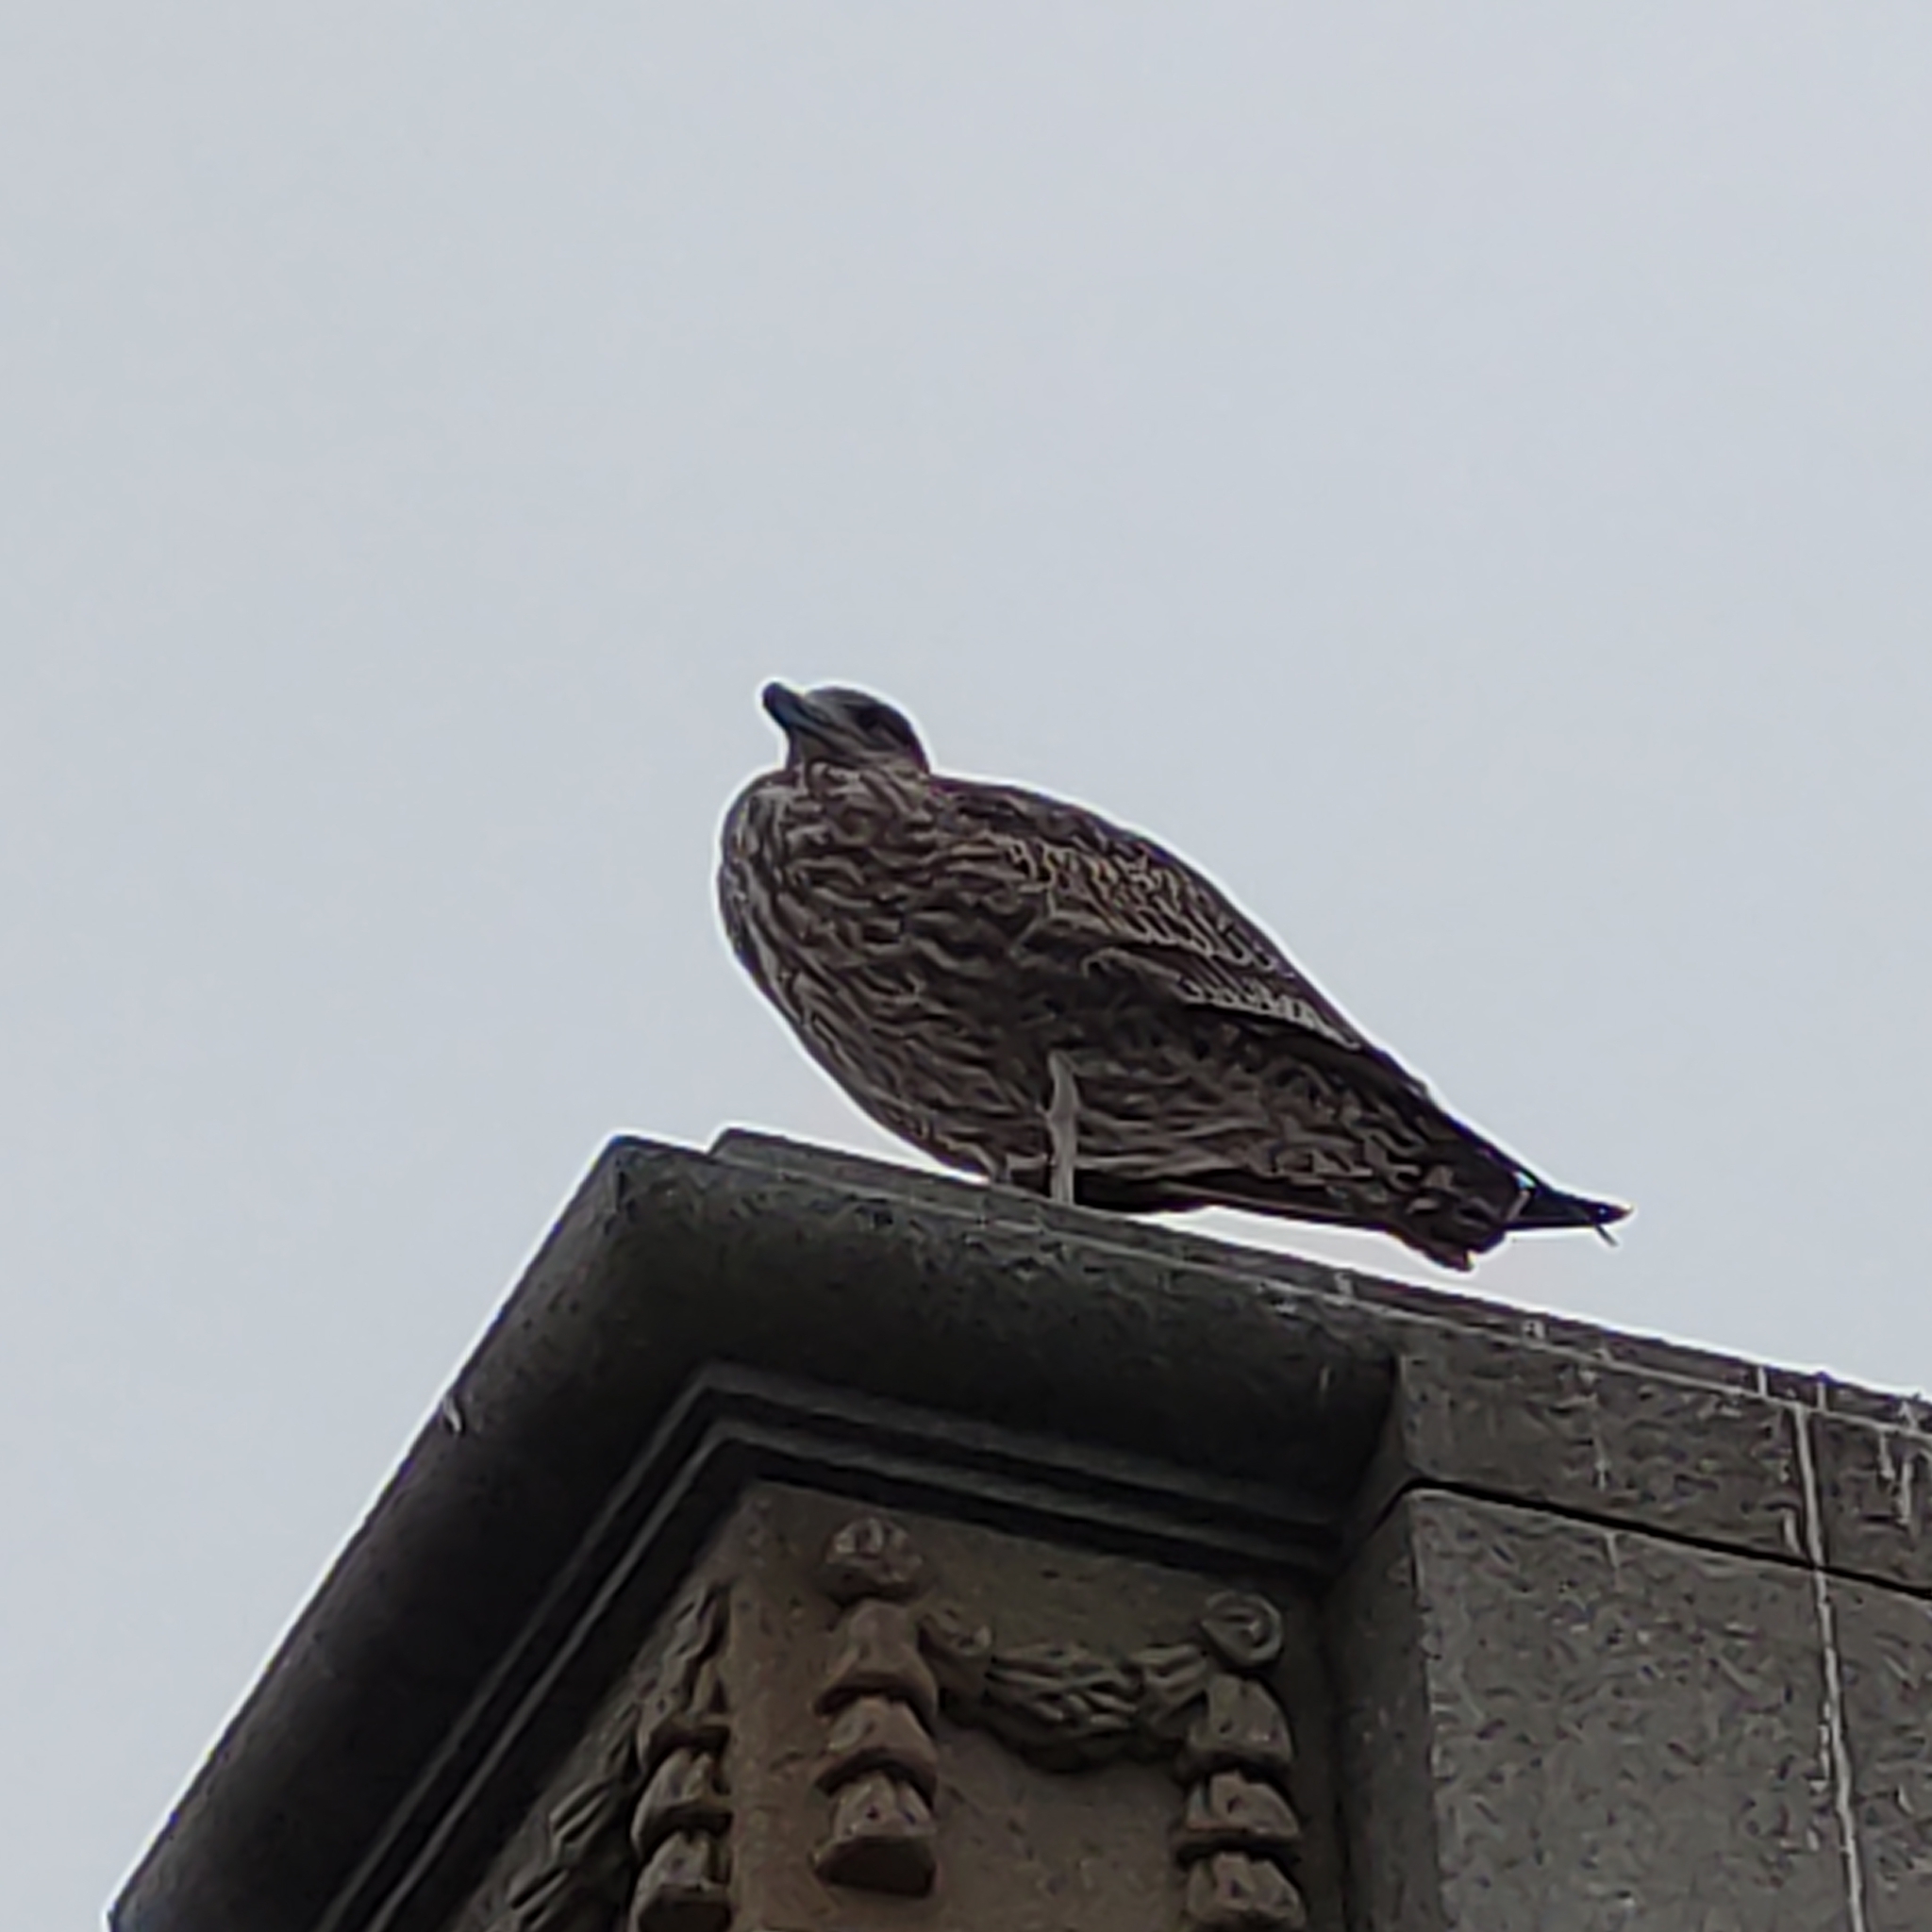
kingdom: Animalia
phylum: Chordata
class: Aves
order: Charadriiformes
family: Laridae
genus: Larus
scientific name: Larus dominicanus
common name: Kelp gull
